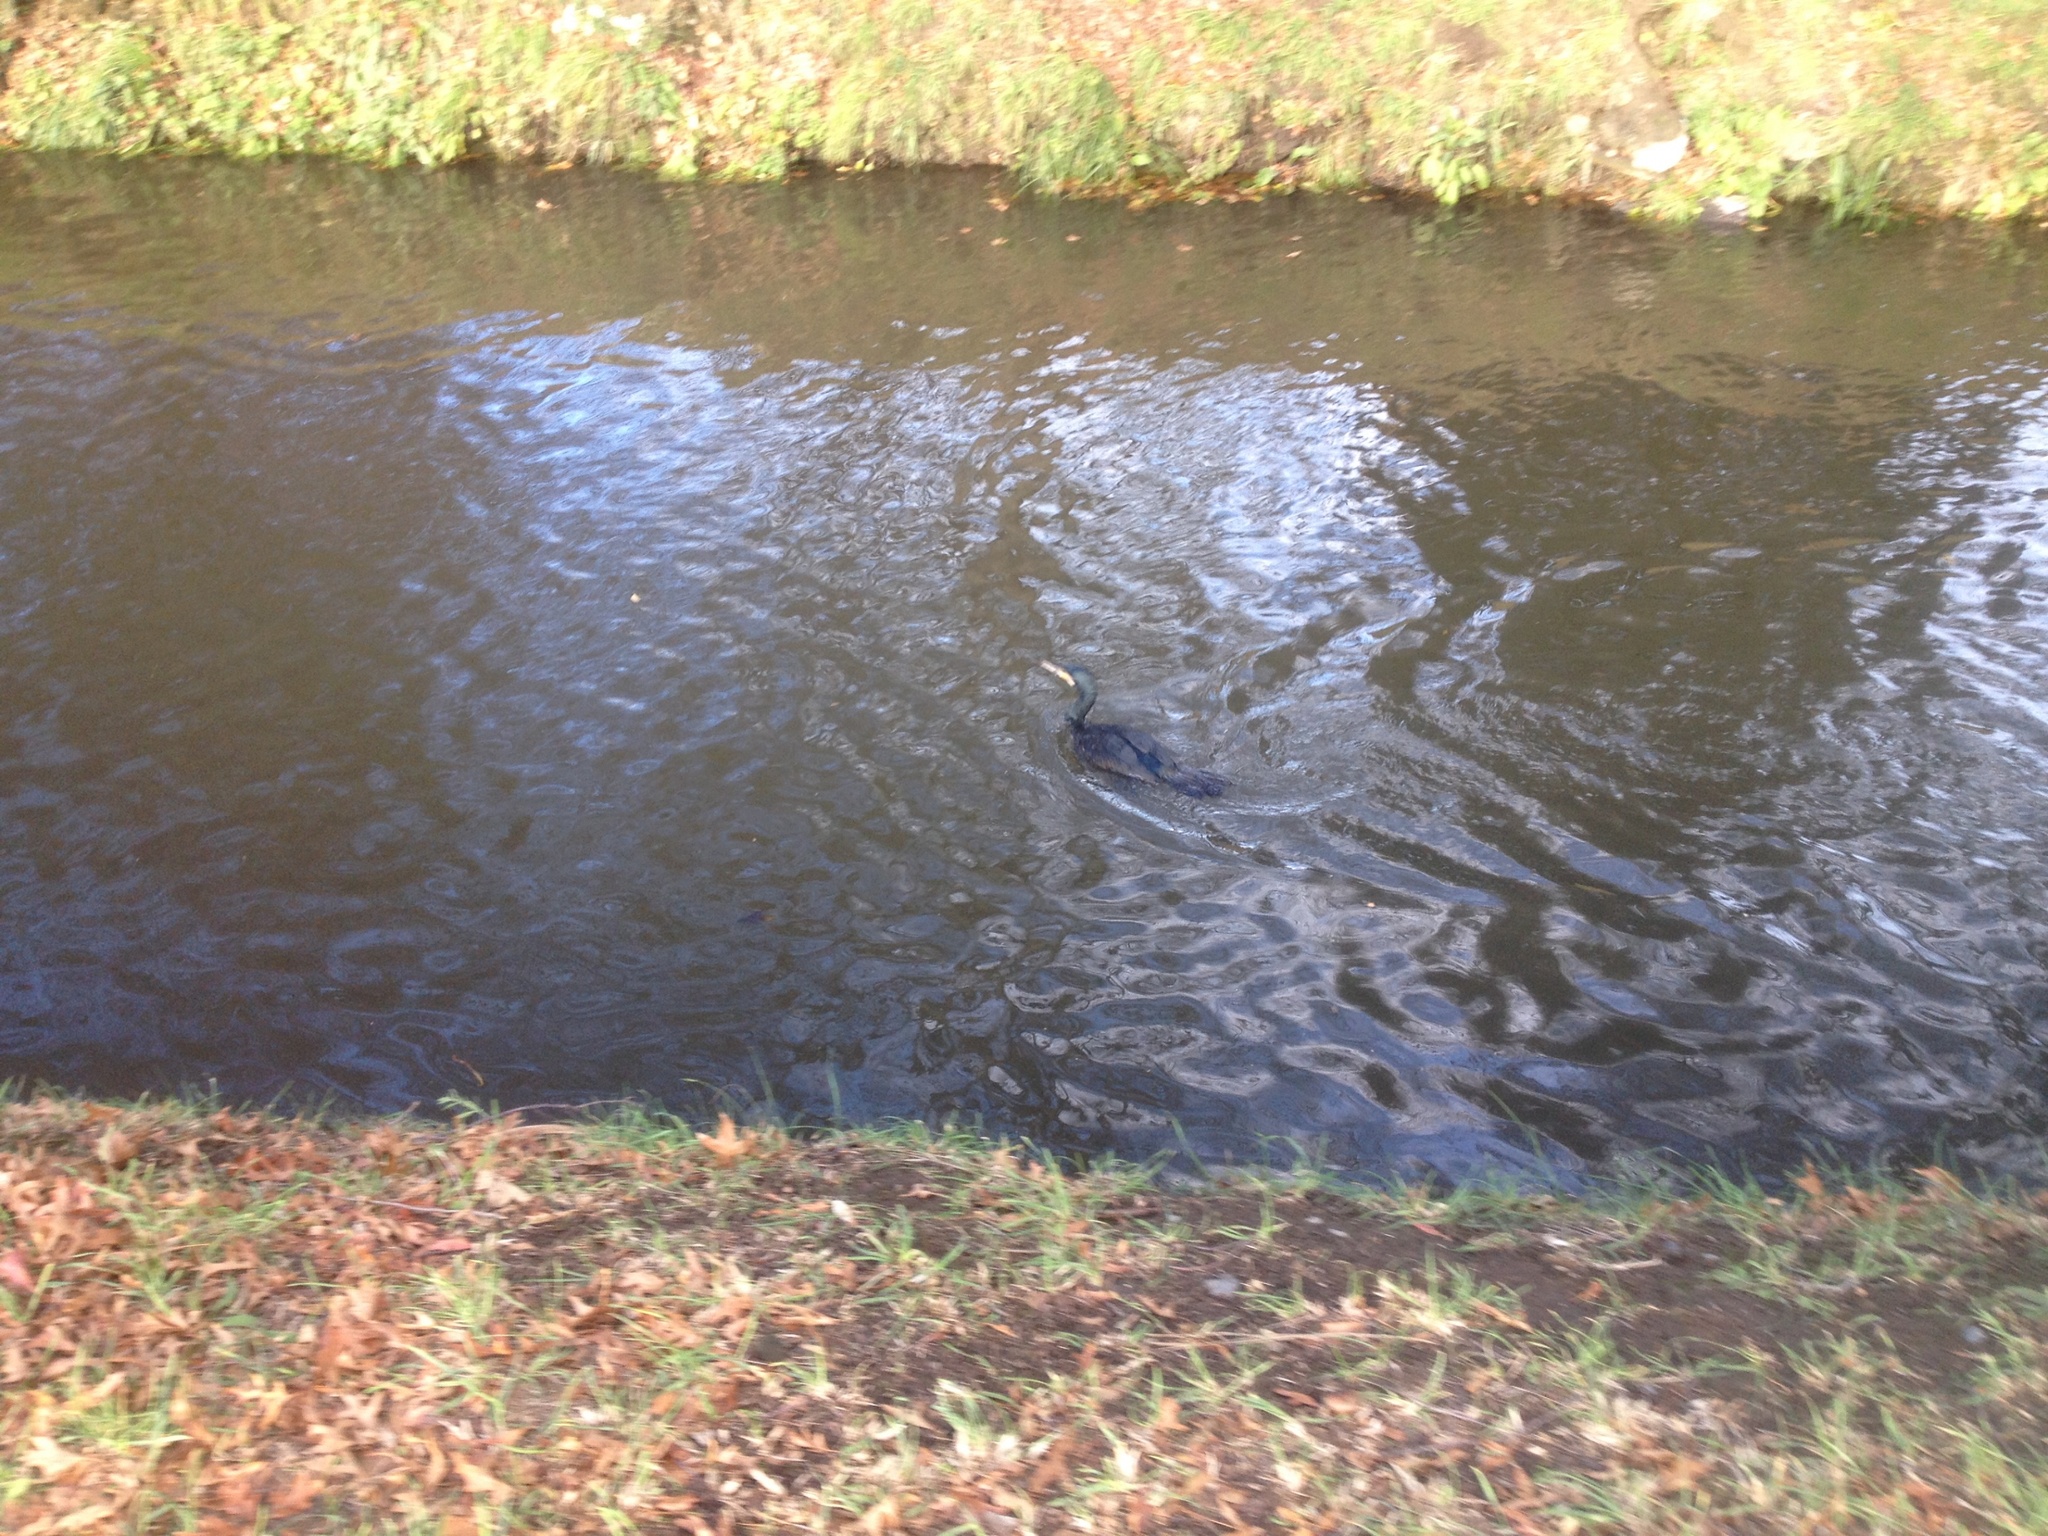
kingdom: Animalia
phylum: Chordata
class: Aves
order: Suliformes
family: Phalacrocoracidae
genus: Phalacrocorax
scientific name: Phalacrocorax carbo
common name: Great cormorant
